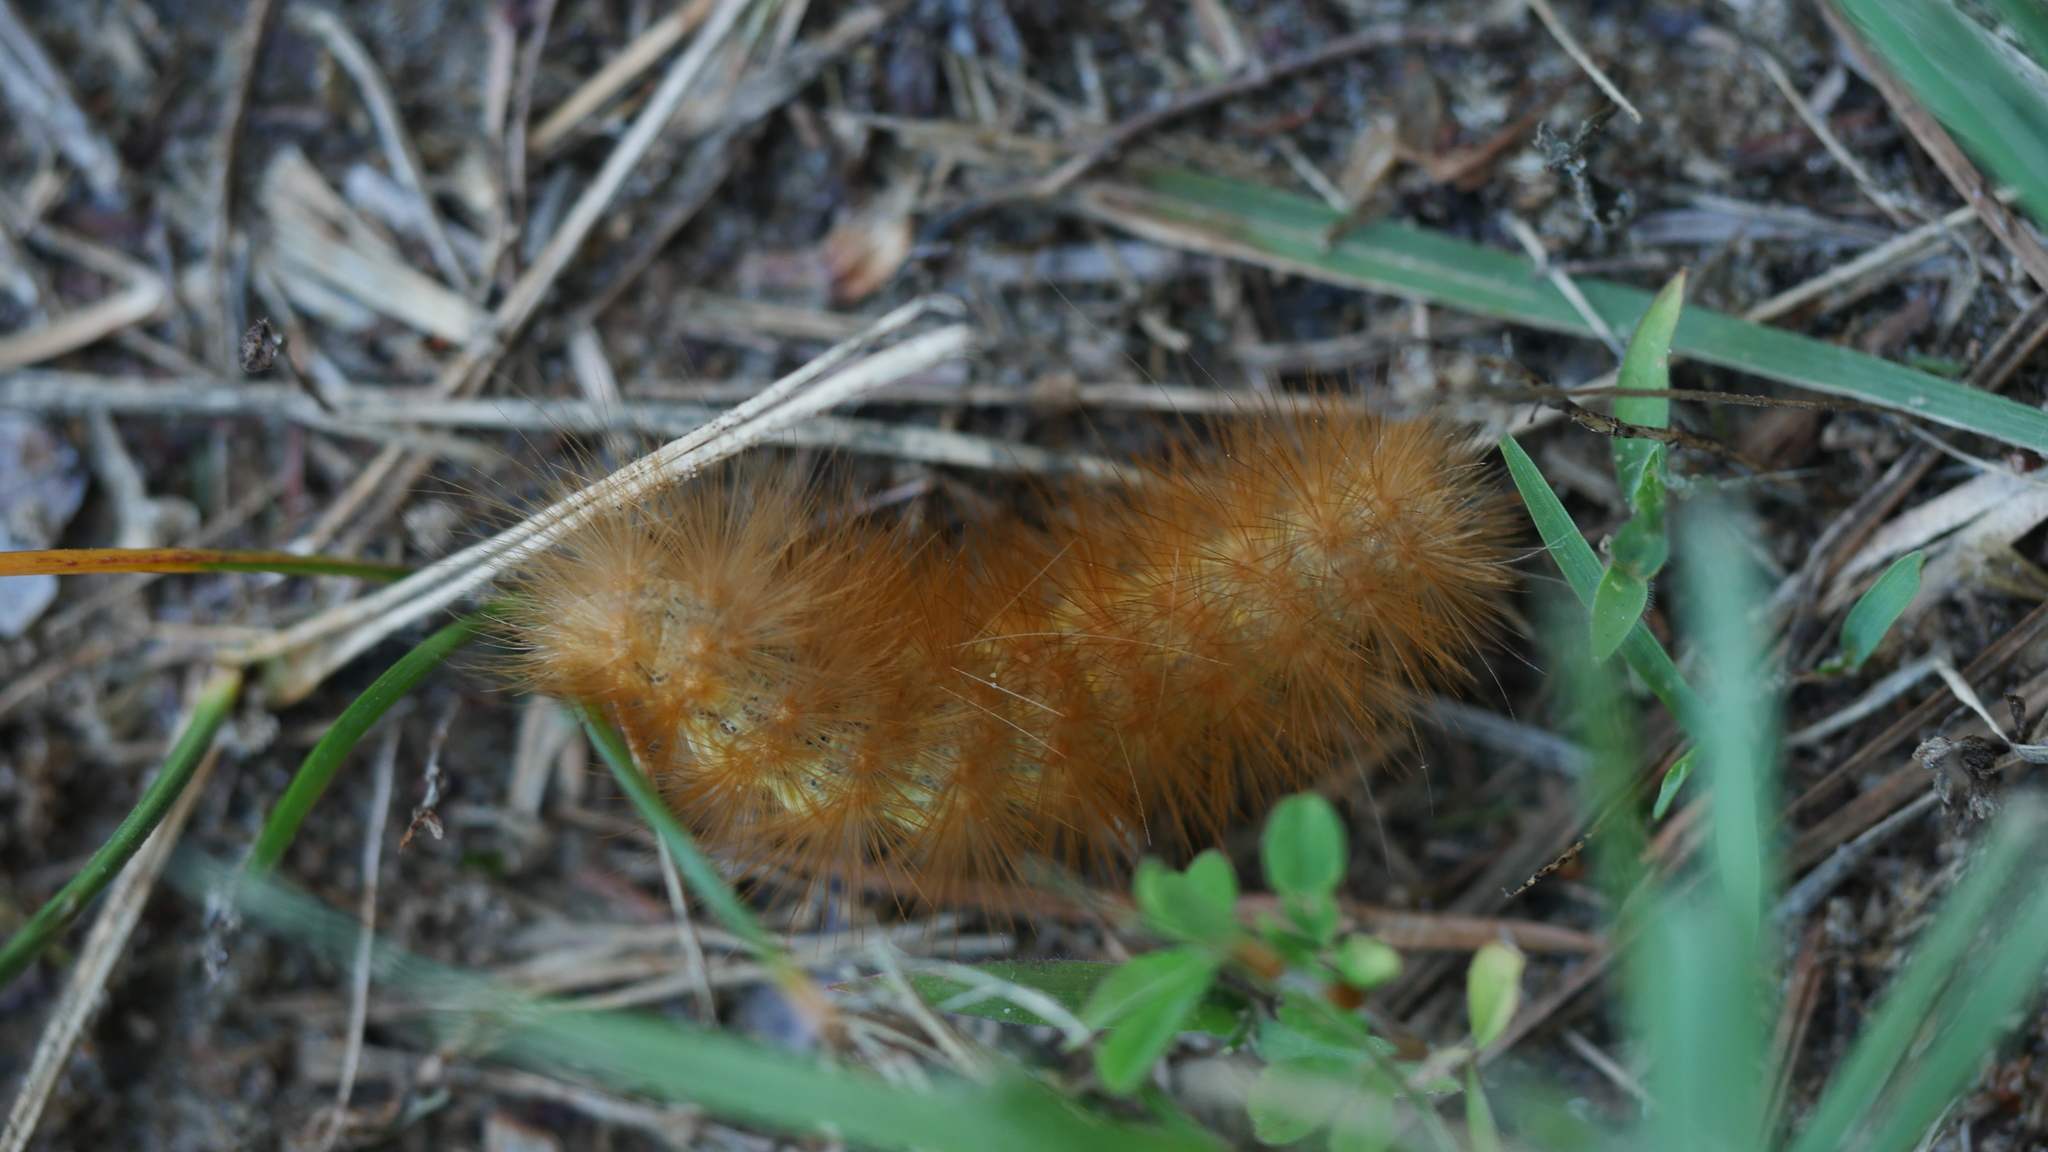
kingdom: Animalia
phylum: Arthropoda
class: Insecta
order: Lepidoptera
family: Erebidae
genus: Estigmene
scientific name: Estigmene acrea
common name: Salt marsh moth
